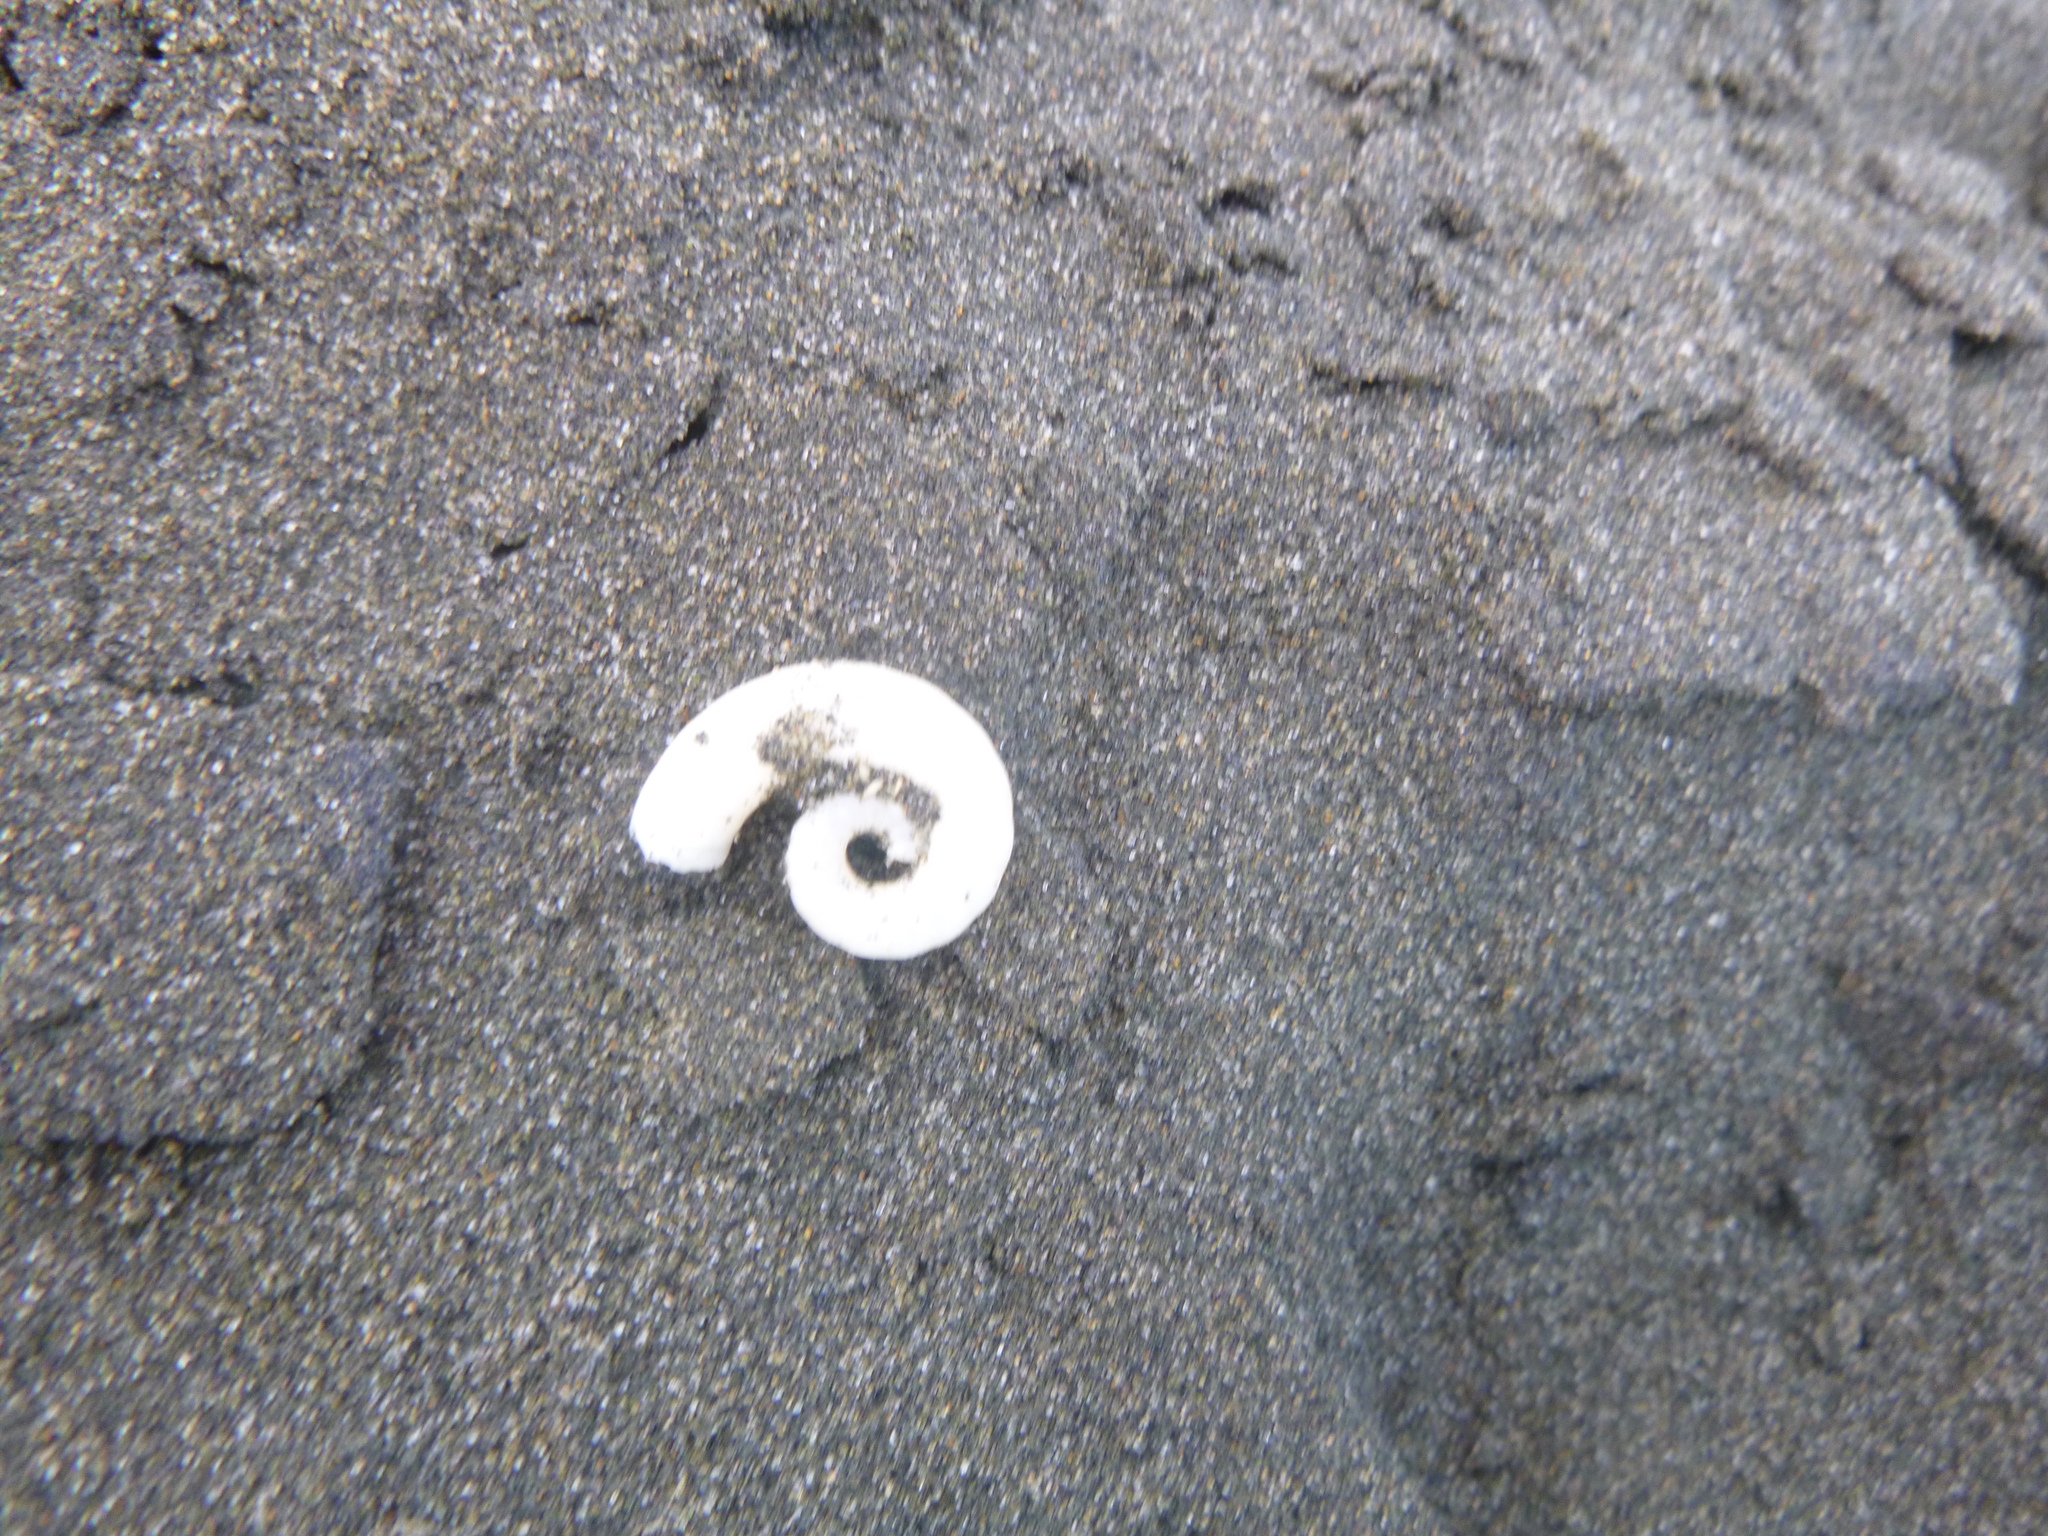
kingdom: Animalia
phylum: Mollusca
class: Cephalopoda
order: Spirulida
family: Spirulidae
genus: Spirula
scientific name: Spirula spirula
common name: Ram's horn squid
